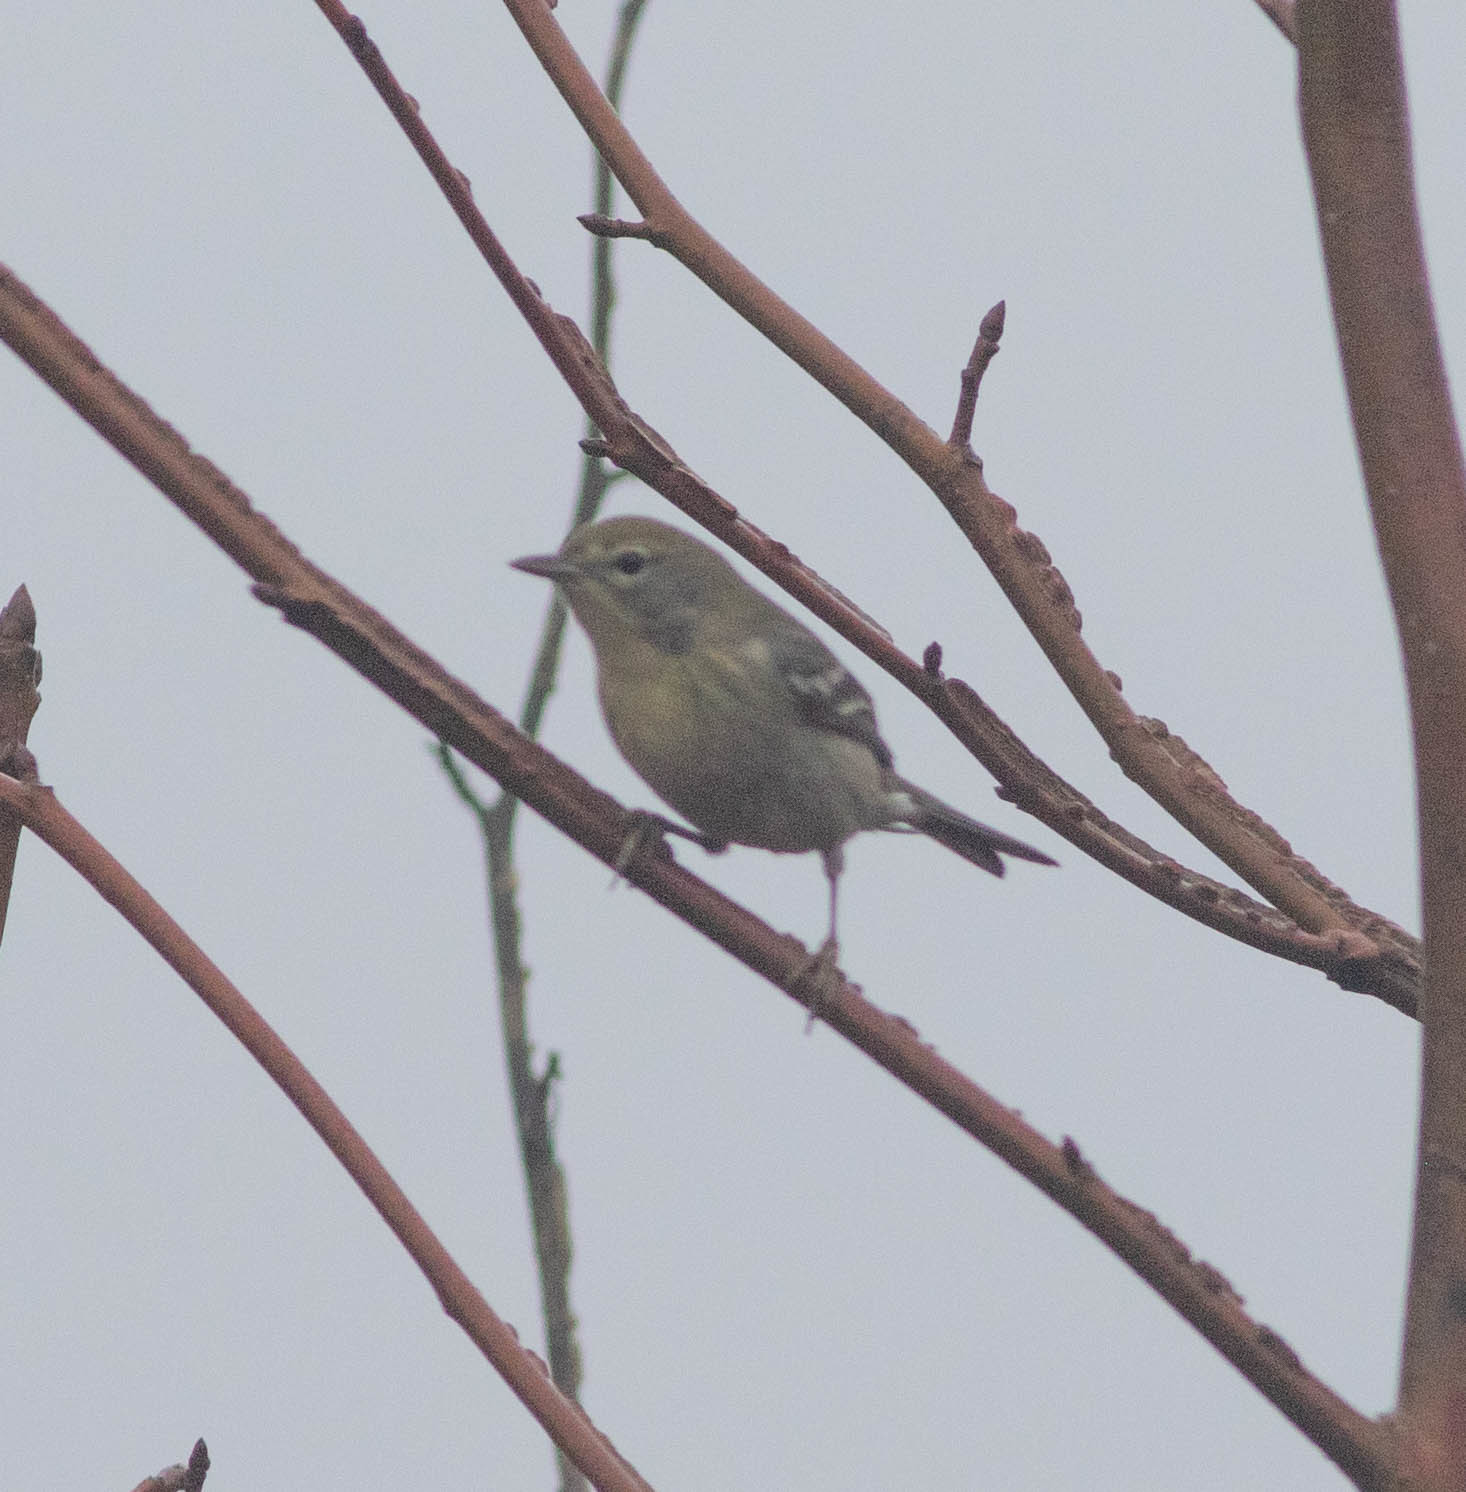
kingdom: Animalia
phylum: Chordata
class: Aves
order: Passeriformes
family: Parulidae
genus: Setophaga
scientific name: Setophaga pinus
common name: Pine warbler
